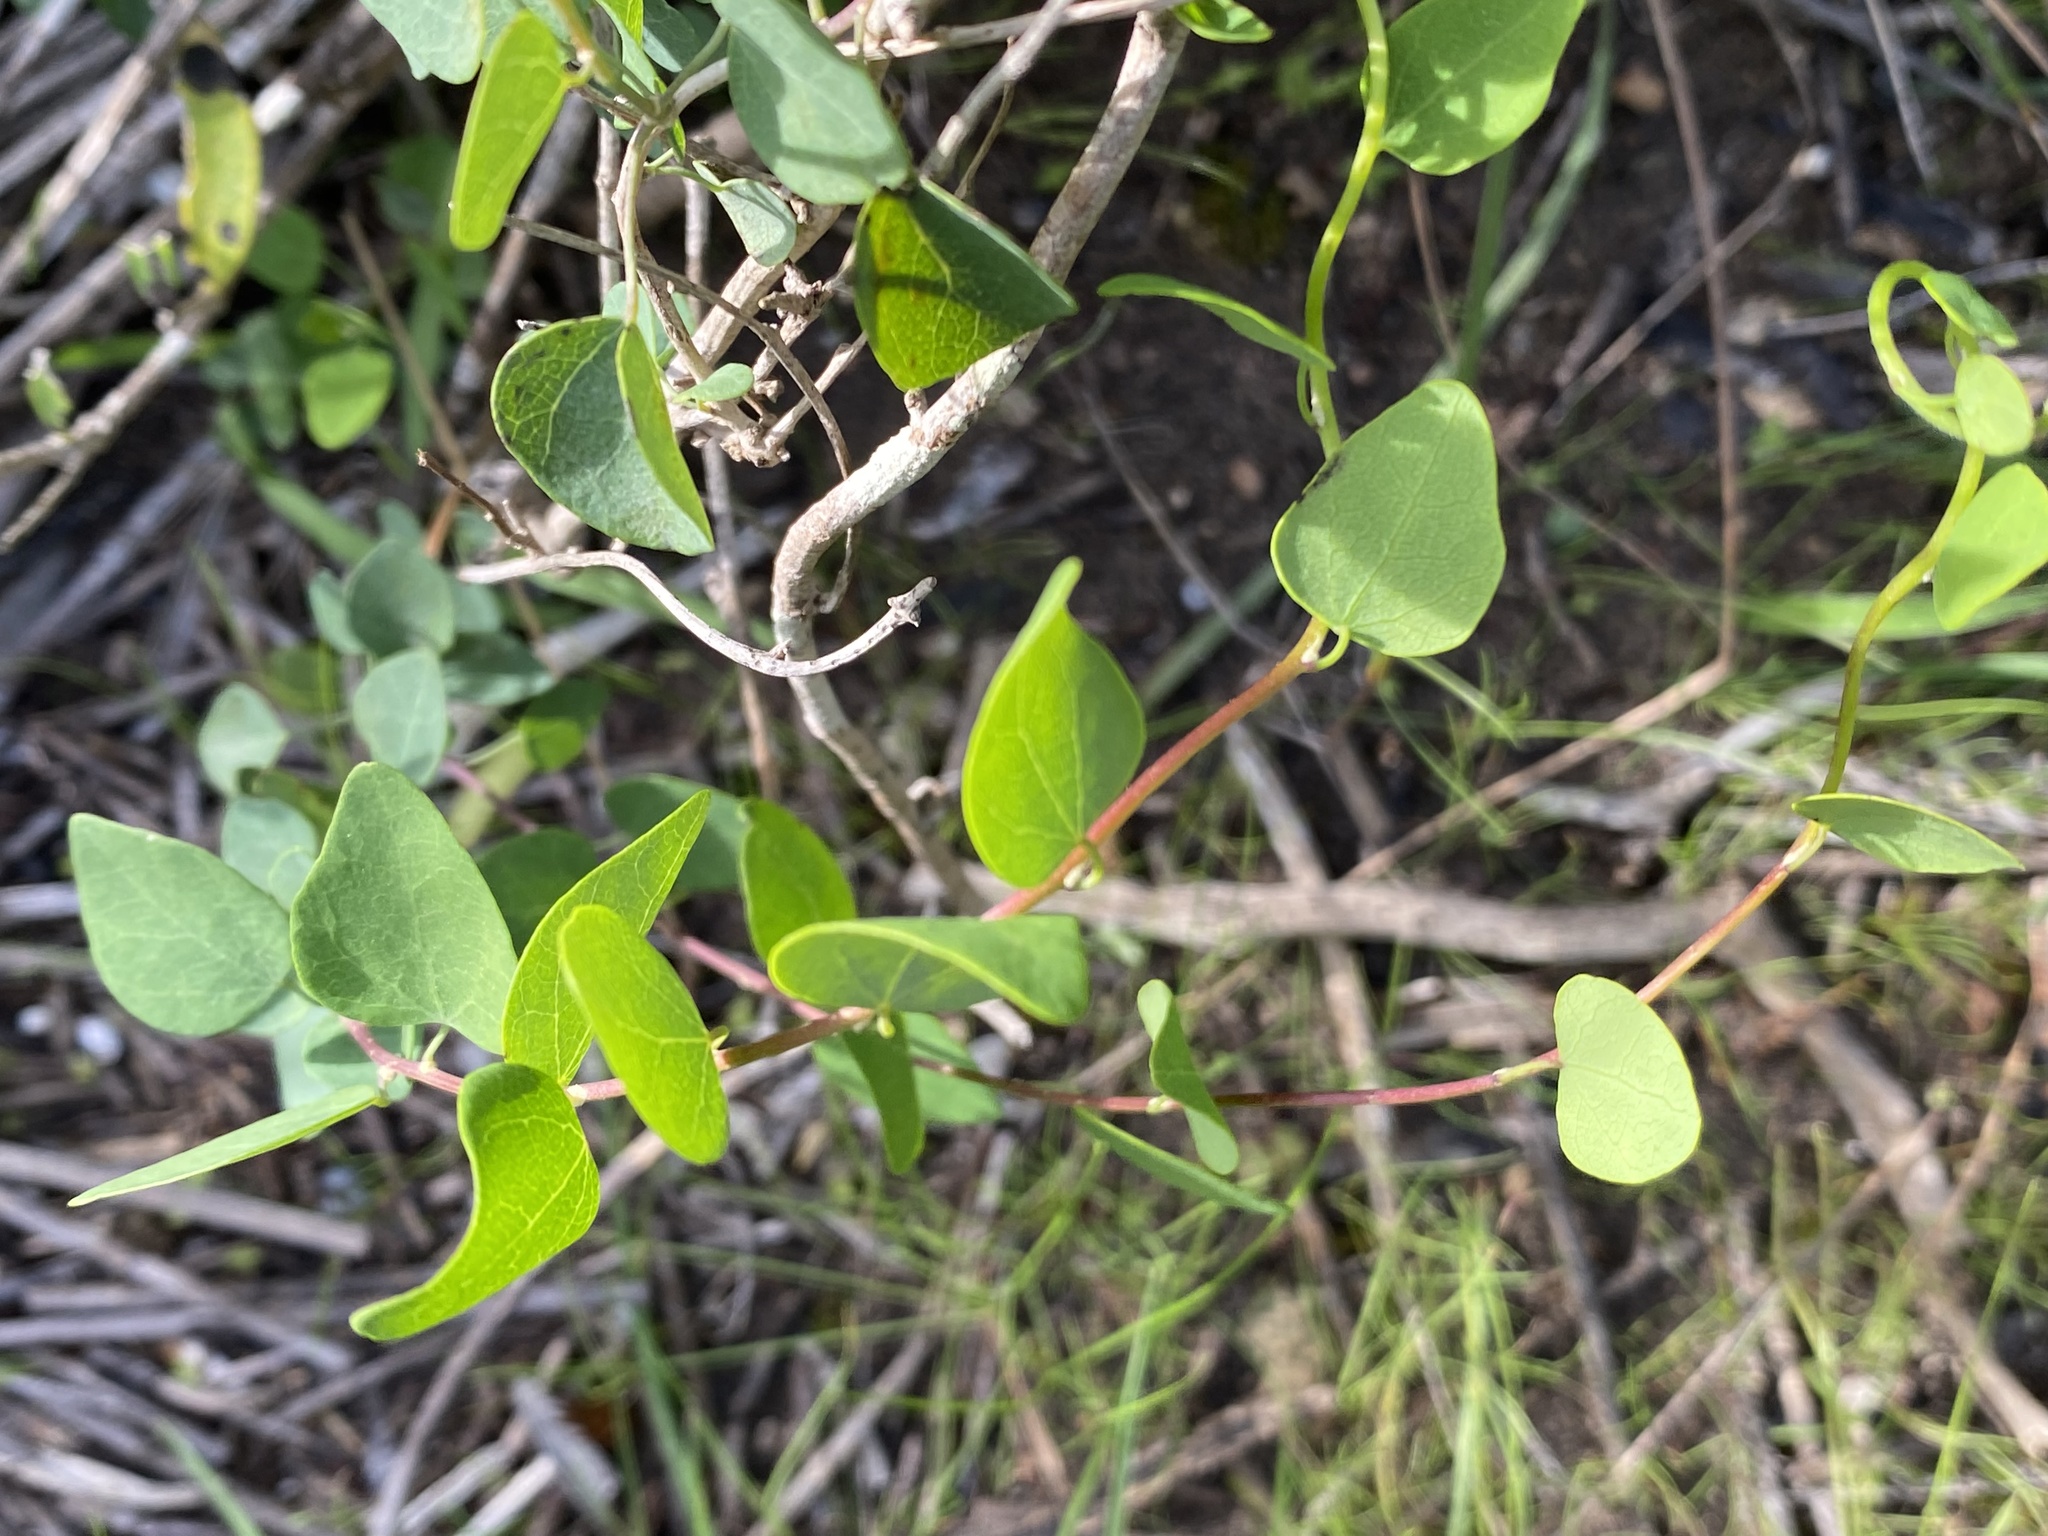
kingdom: Plantae
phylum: Tracheophyta
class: Magnoliopsida
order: Ranunculales
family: Menispermaceae
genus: Cissampelos
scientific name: Cissampelos capensis
